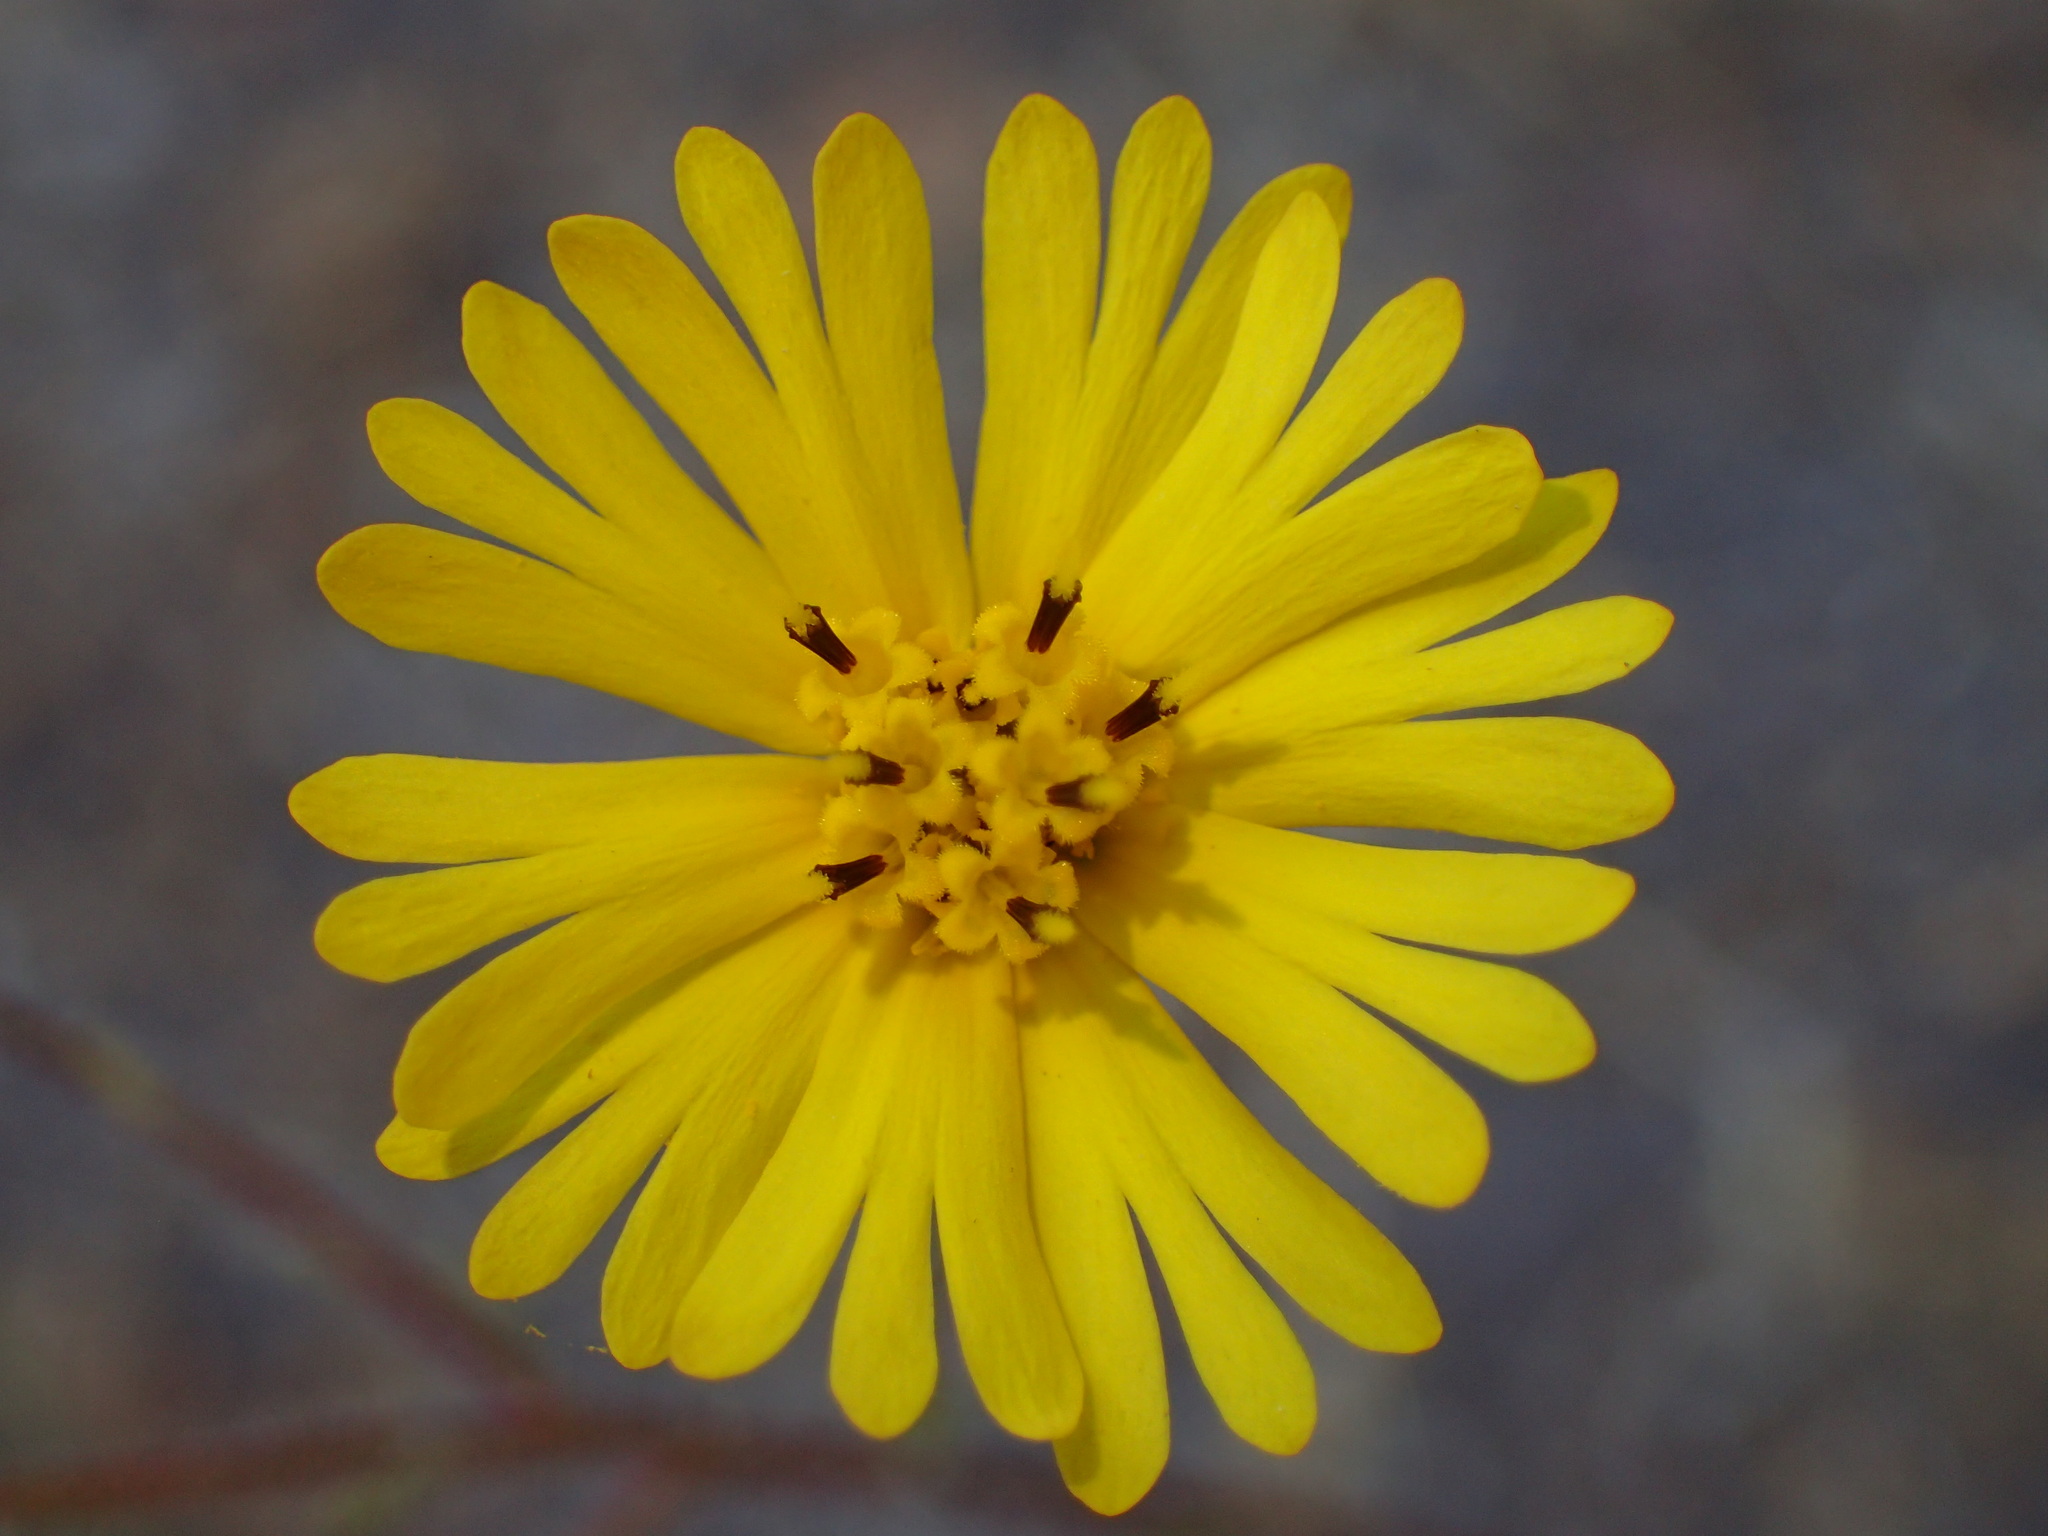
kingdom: Plantae
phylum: Tracheophyta
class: Magnoliopsida
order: Asterales
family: Asteraceae
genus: Madia
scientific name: Madia elegans
